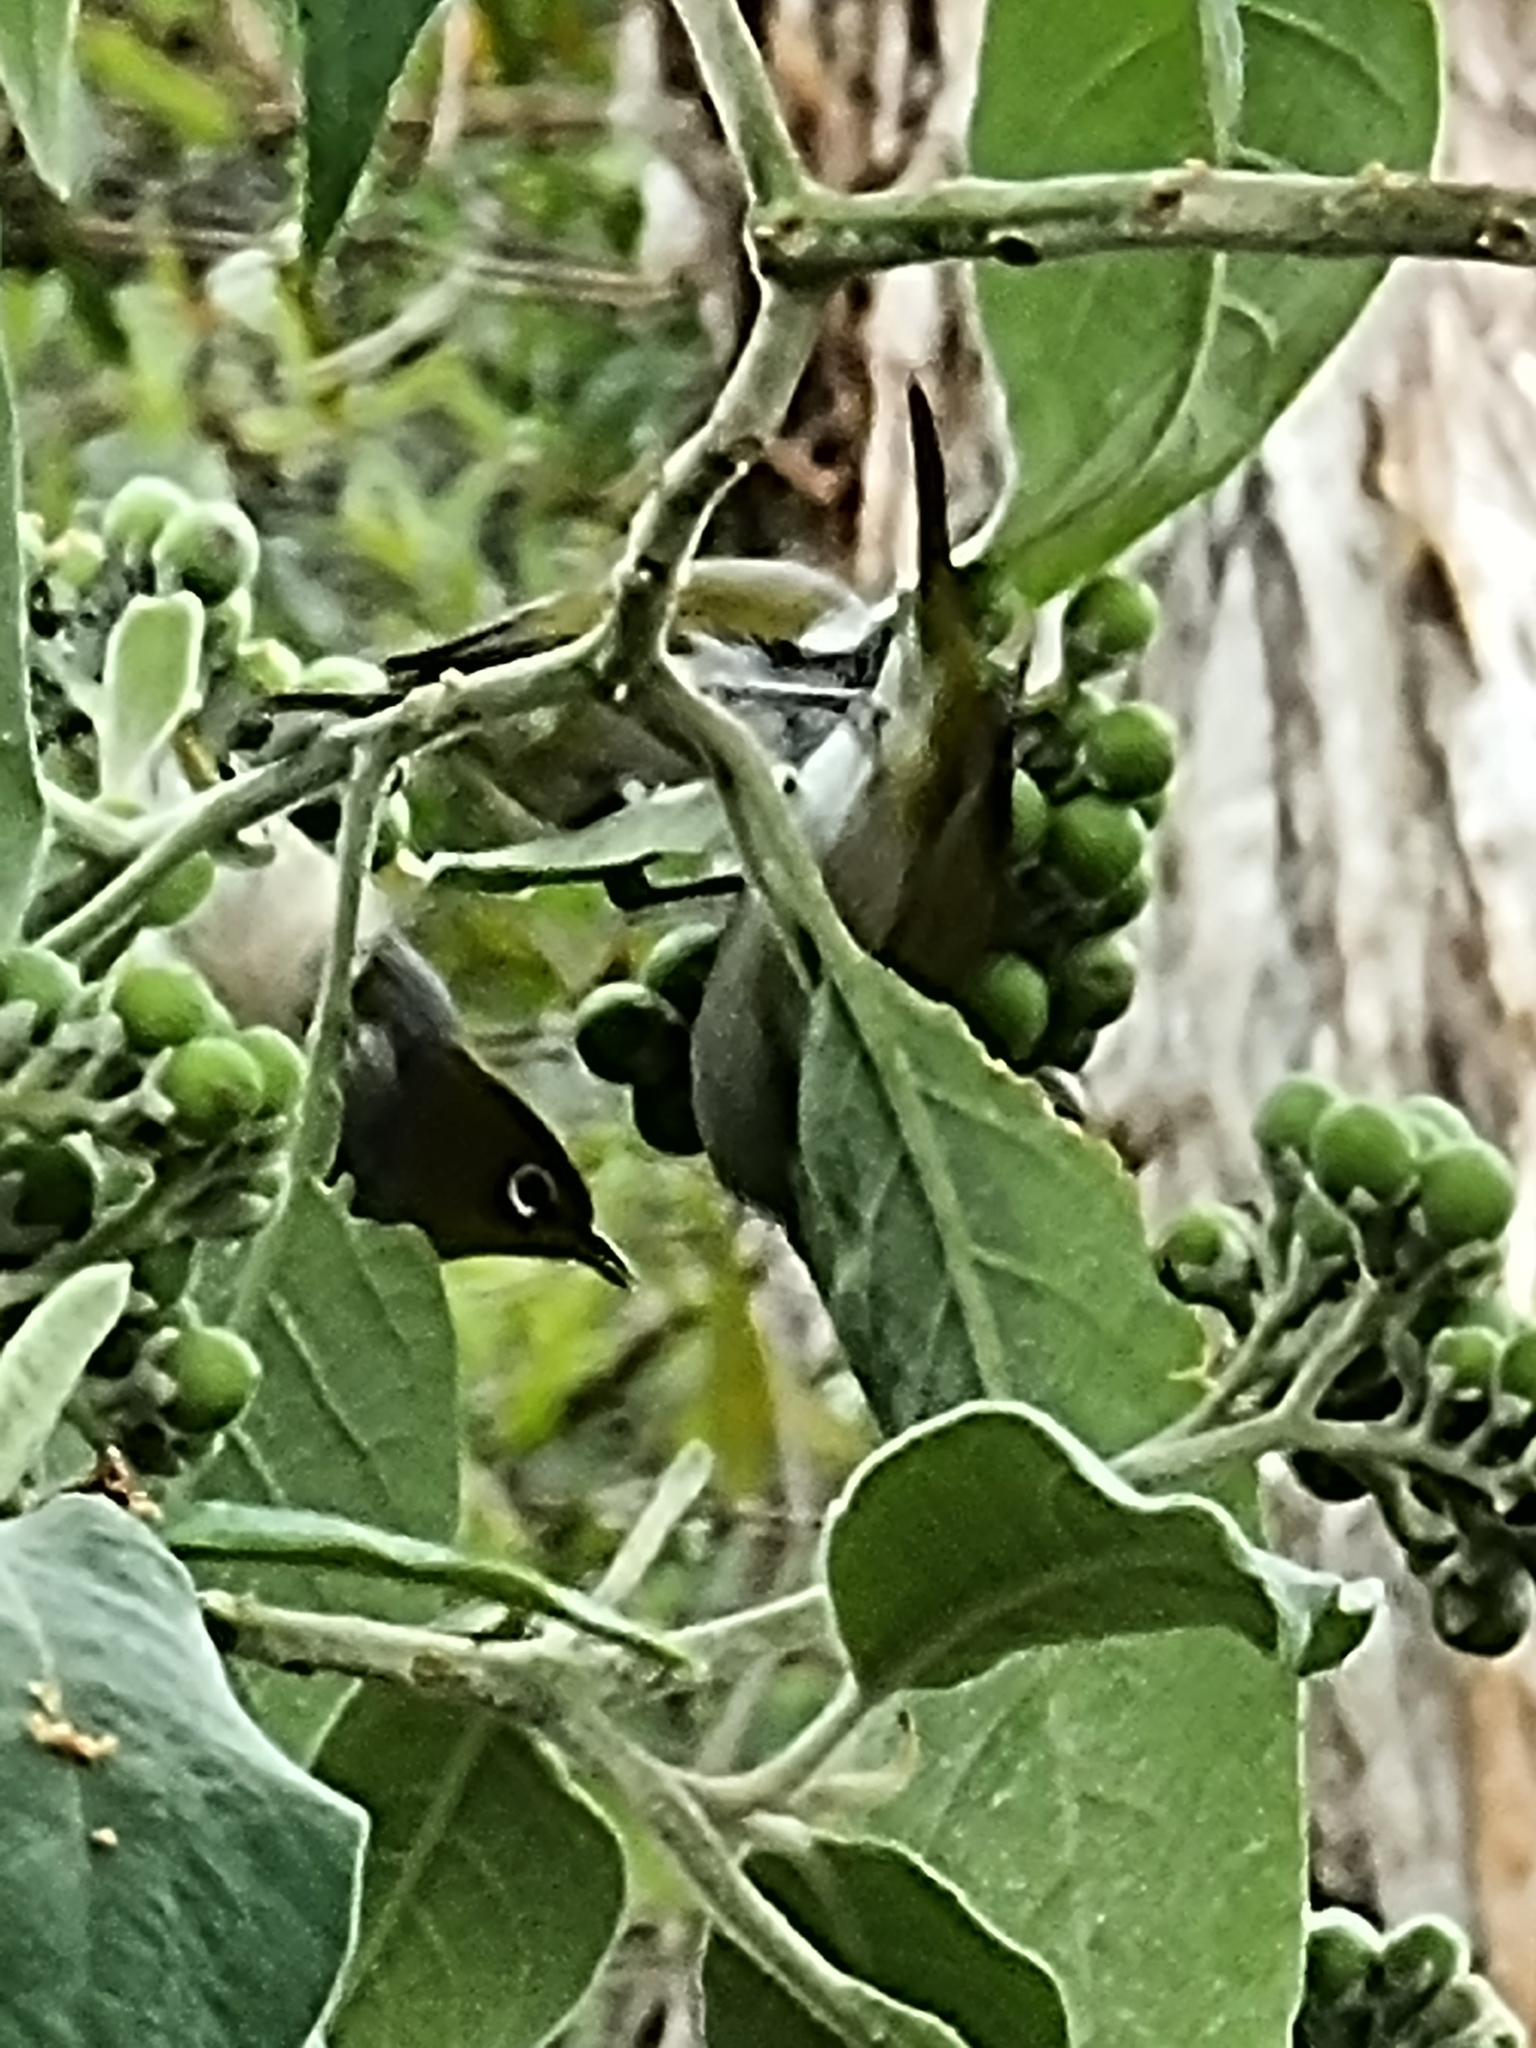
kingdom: Plantae
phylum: Tracheophyta
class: Magnoliopsida
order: Solanales
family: Solanaceae
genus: Solanum
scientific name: Solanum mauritianum
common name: Earleaf nightshade
